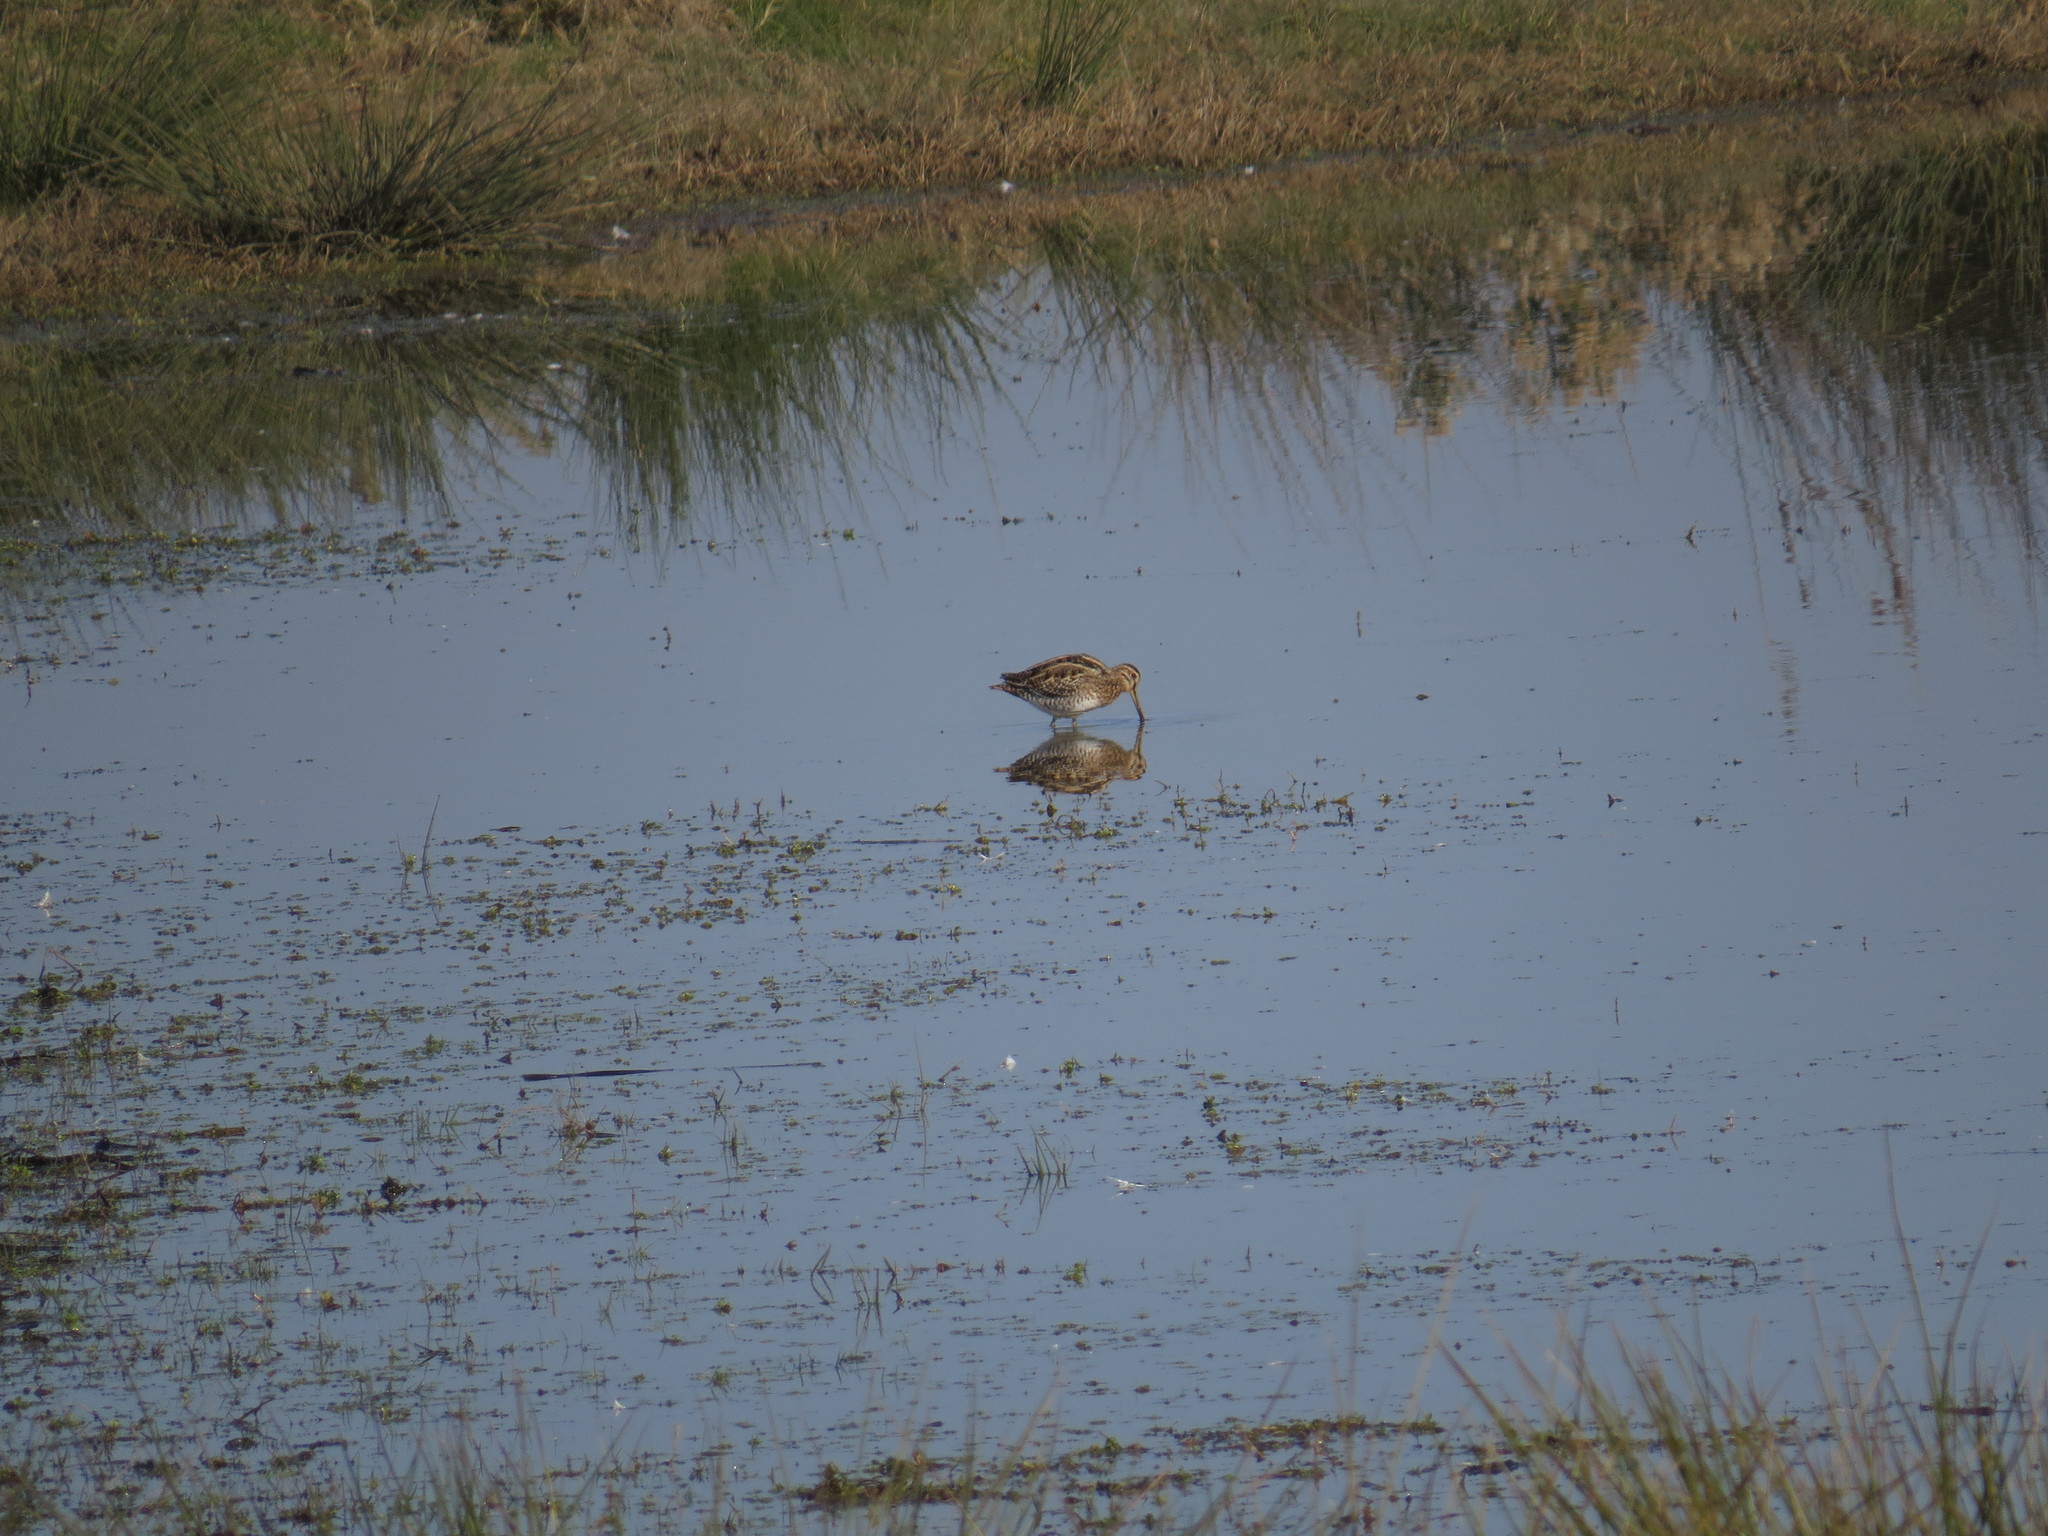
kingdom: Animalia
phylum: Chordata
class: Aves
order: Charadriiformes
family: Scolopacidae
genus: Gallinago
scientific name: Gallinago gallinago
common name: Common snipe
